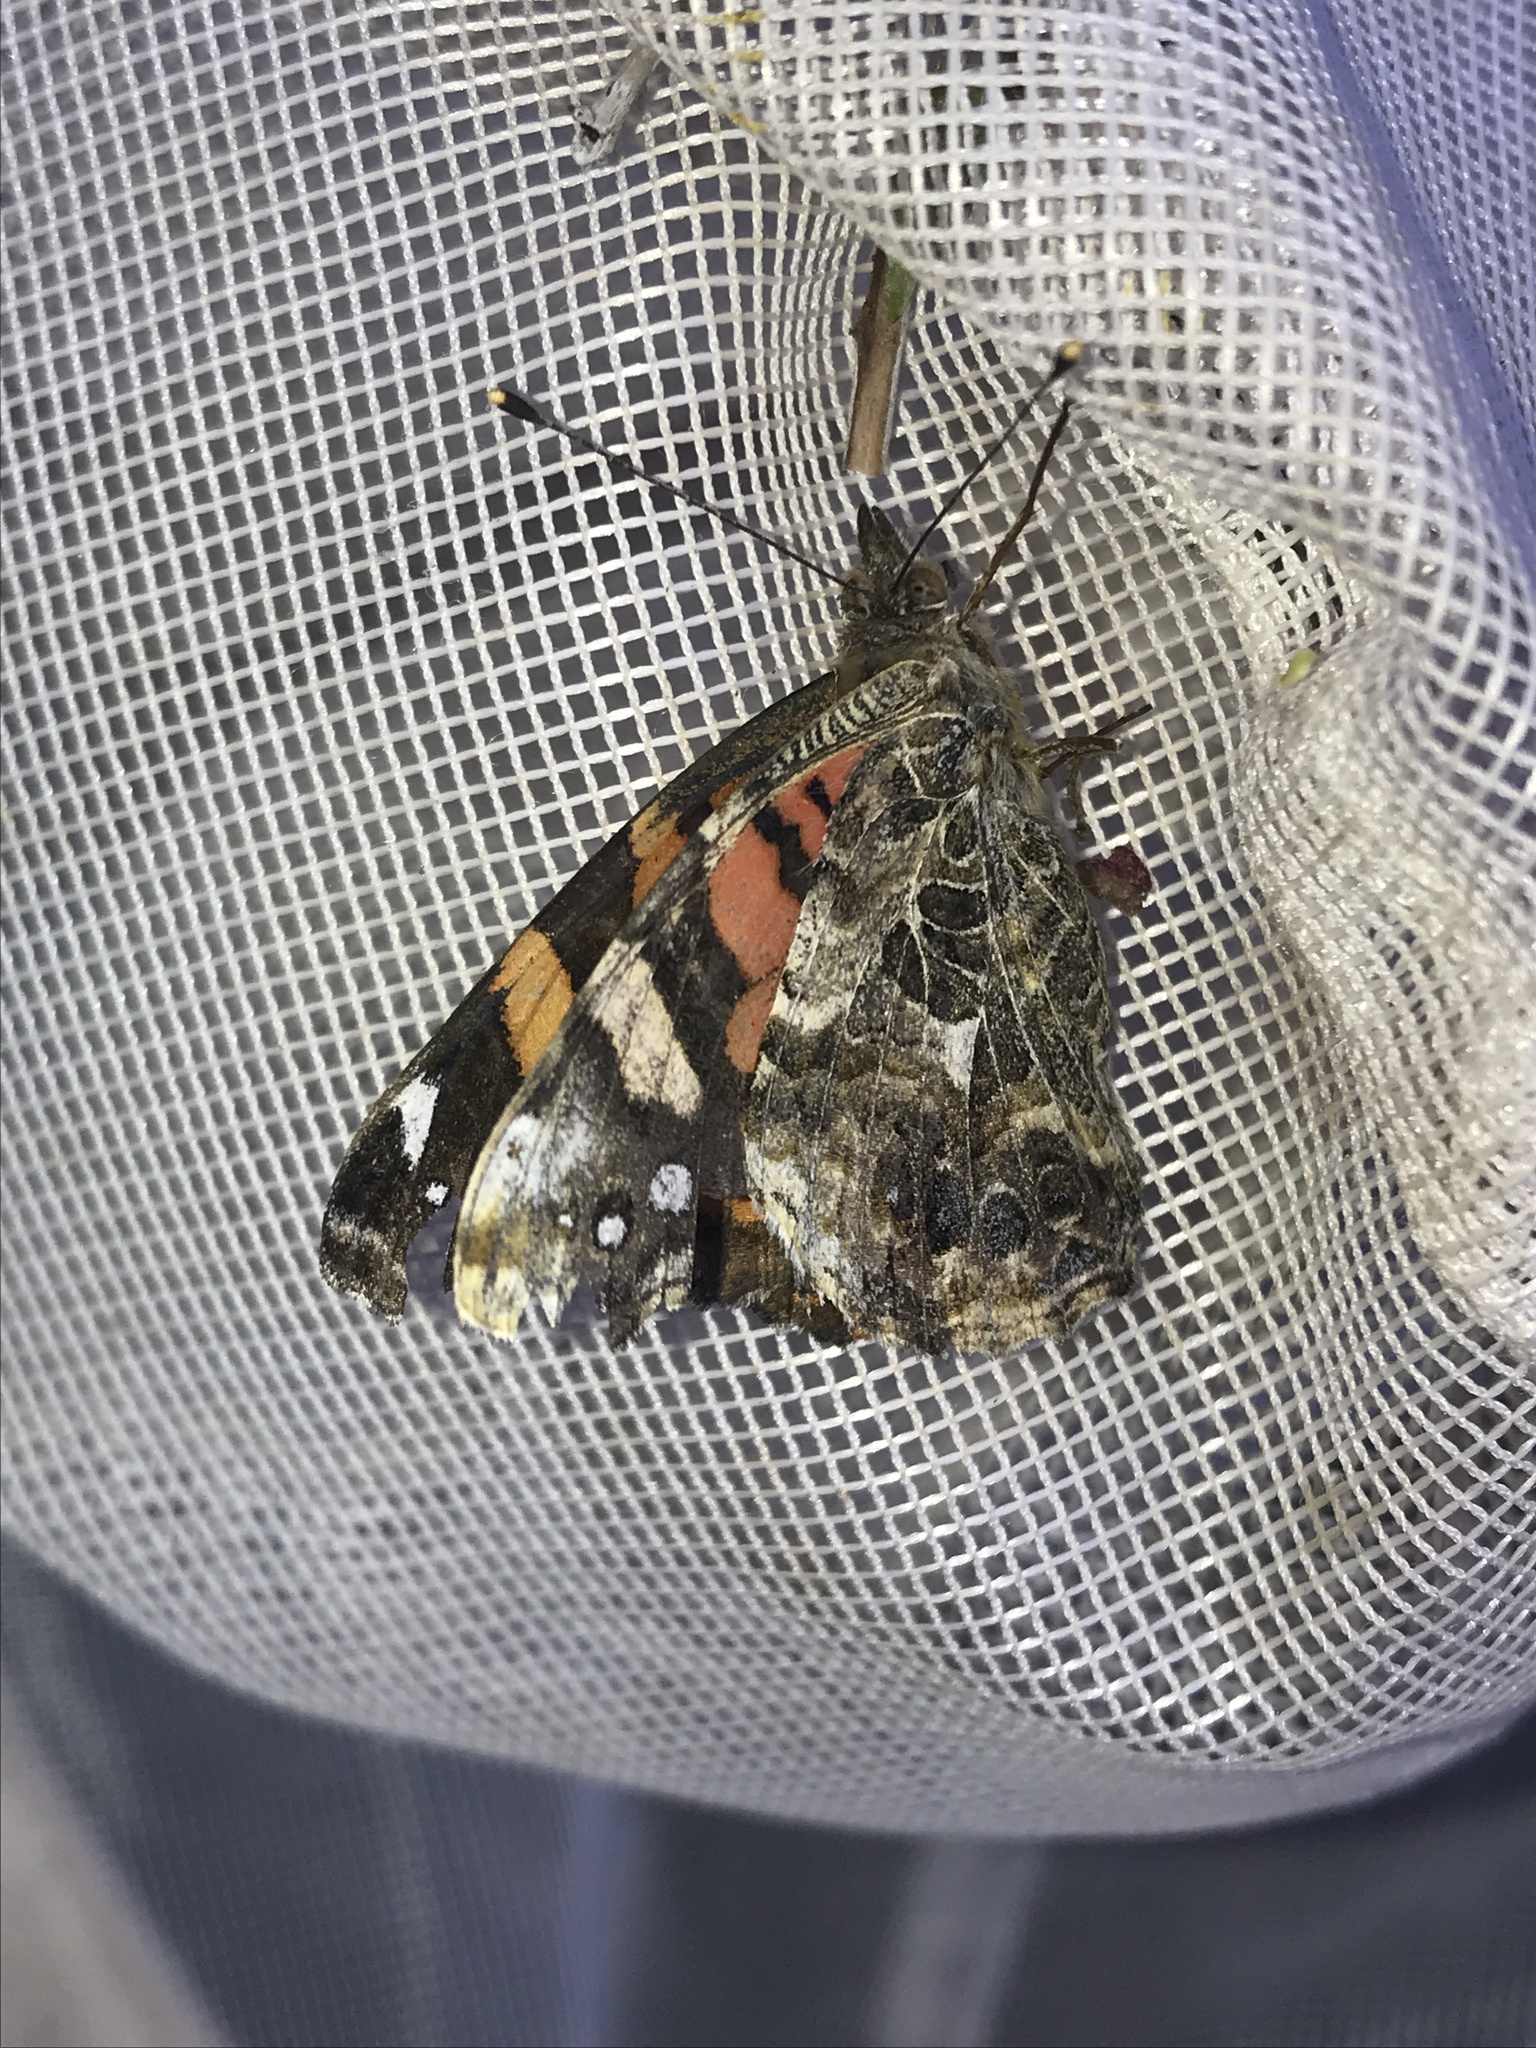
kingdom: Animalia
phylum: Arthropoda
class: Insecta
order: Lepidoptera
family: Nymphalidae
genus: Vanessa
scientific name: Vanessa annabella
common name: West coast lady
